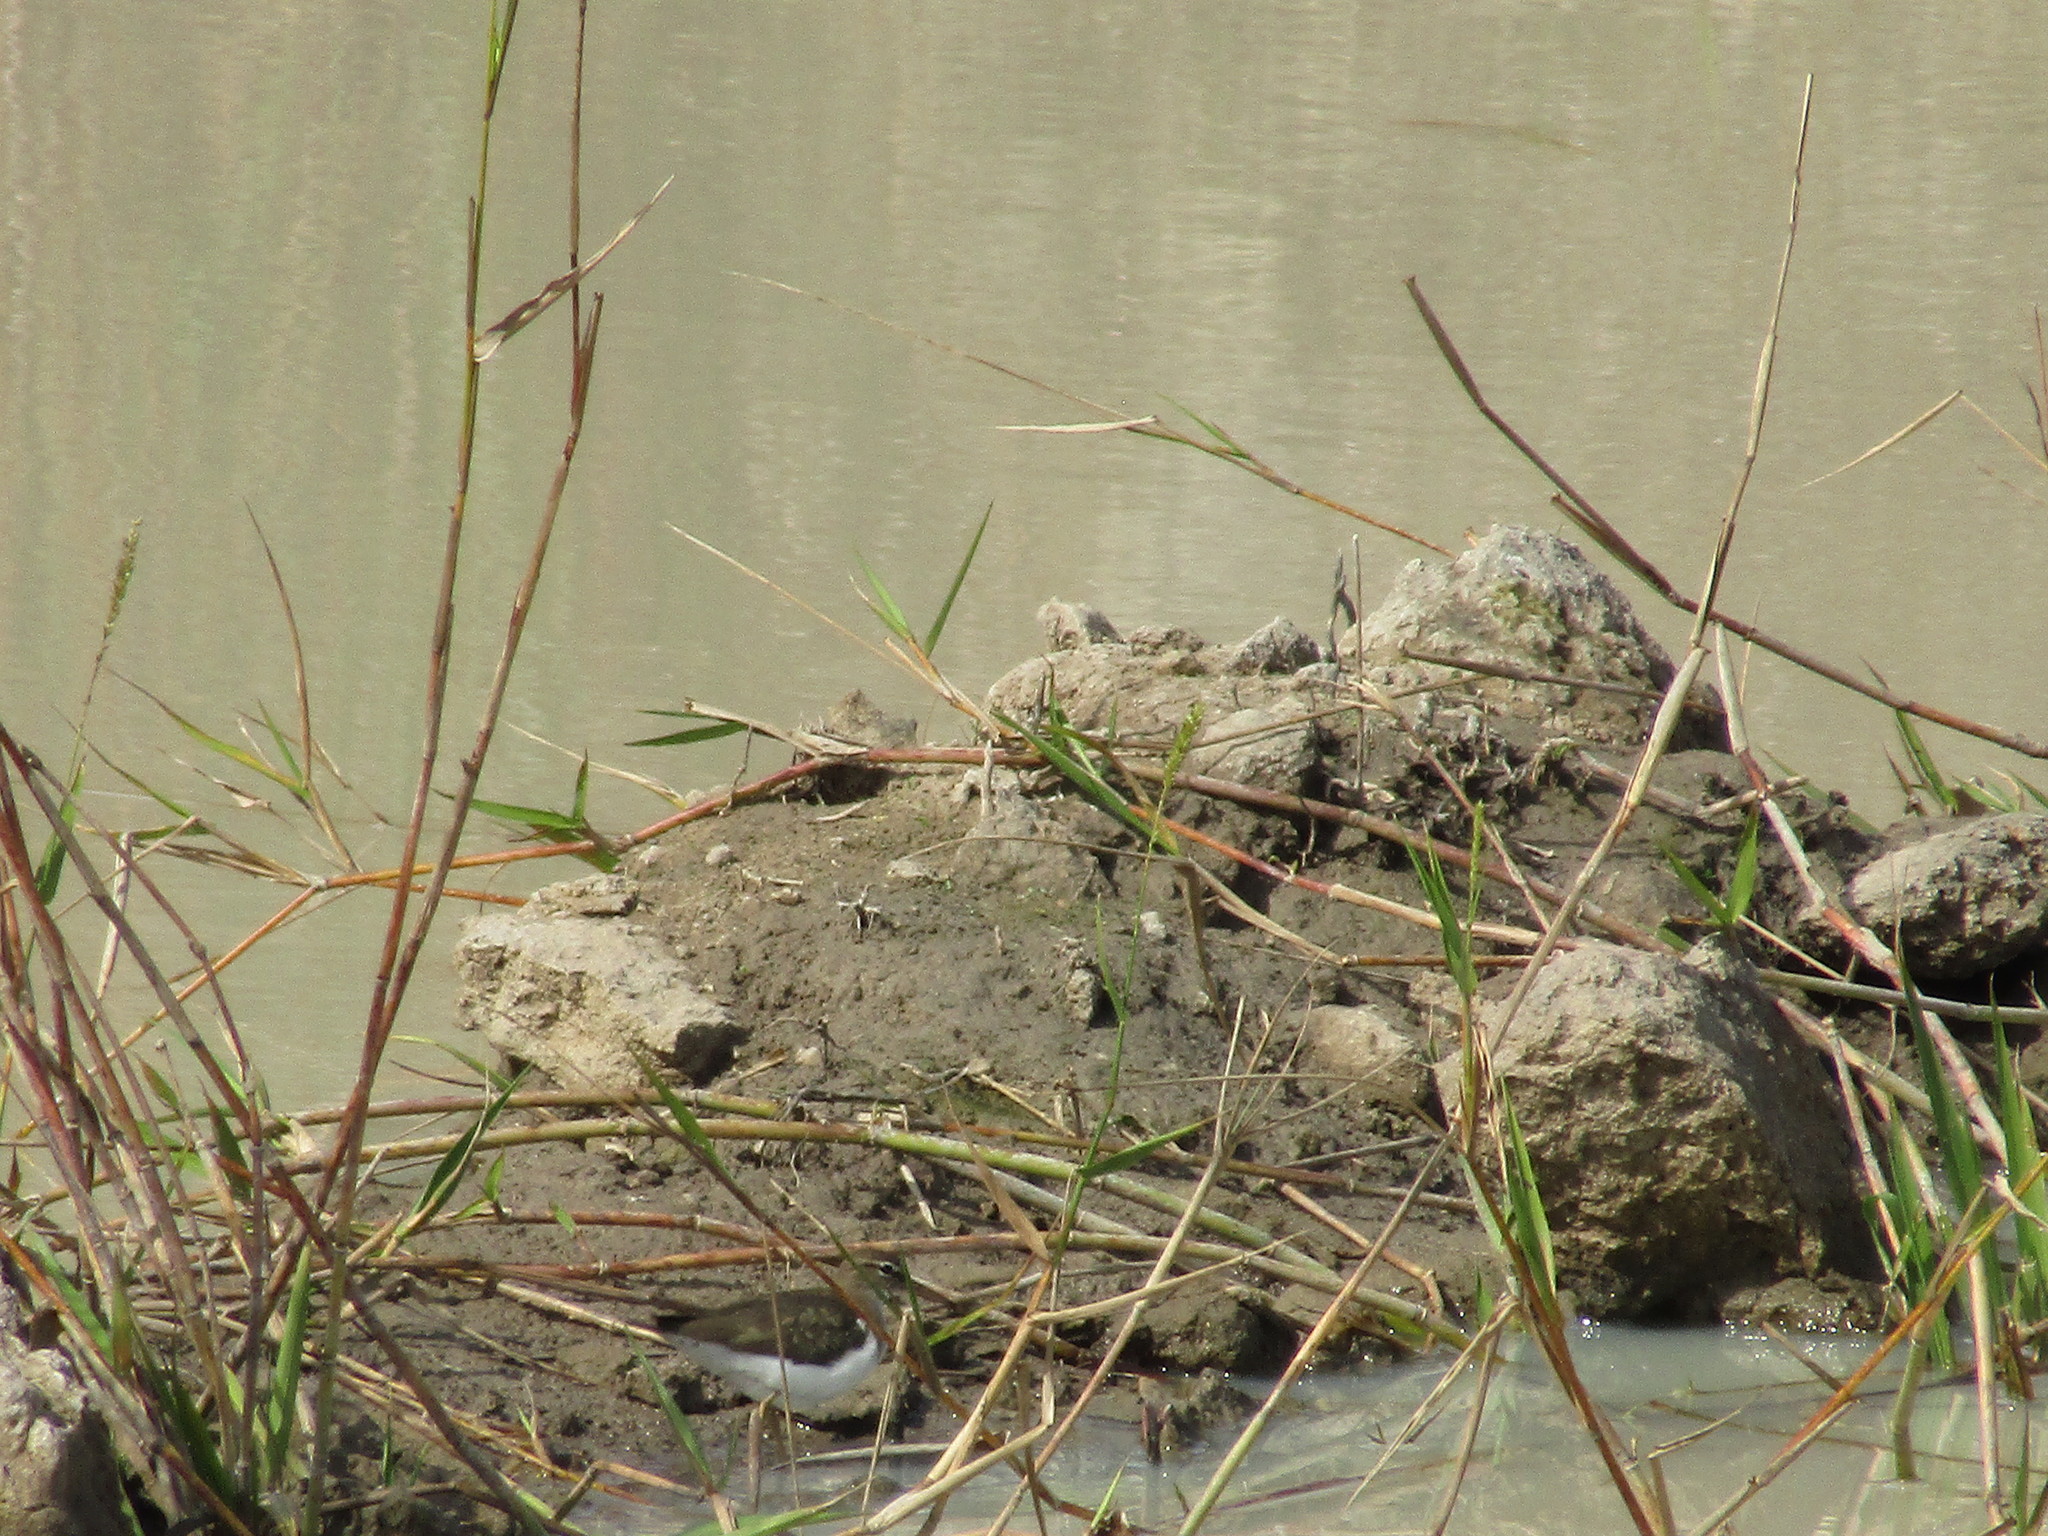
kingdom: Animalia
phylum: Chordata
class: Aves
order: Charadriiformes
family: Scolopacidae
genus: Actitis
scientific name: Actitis macularius
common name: Spotted sandpiper
